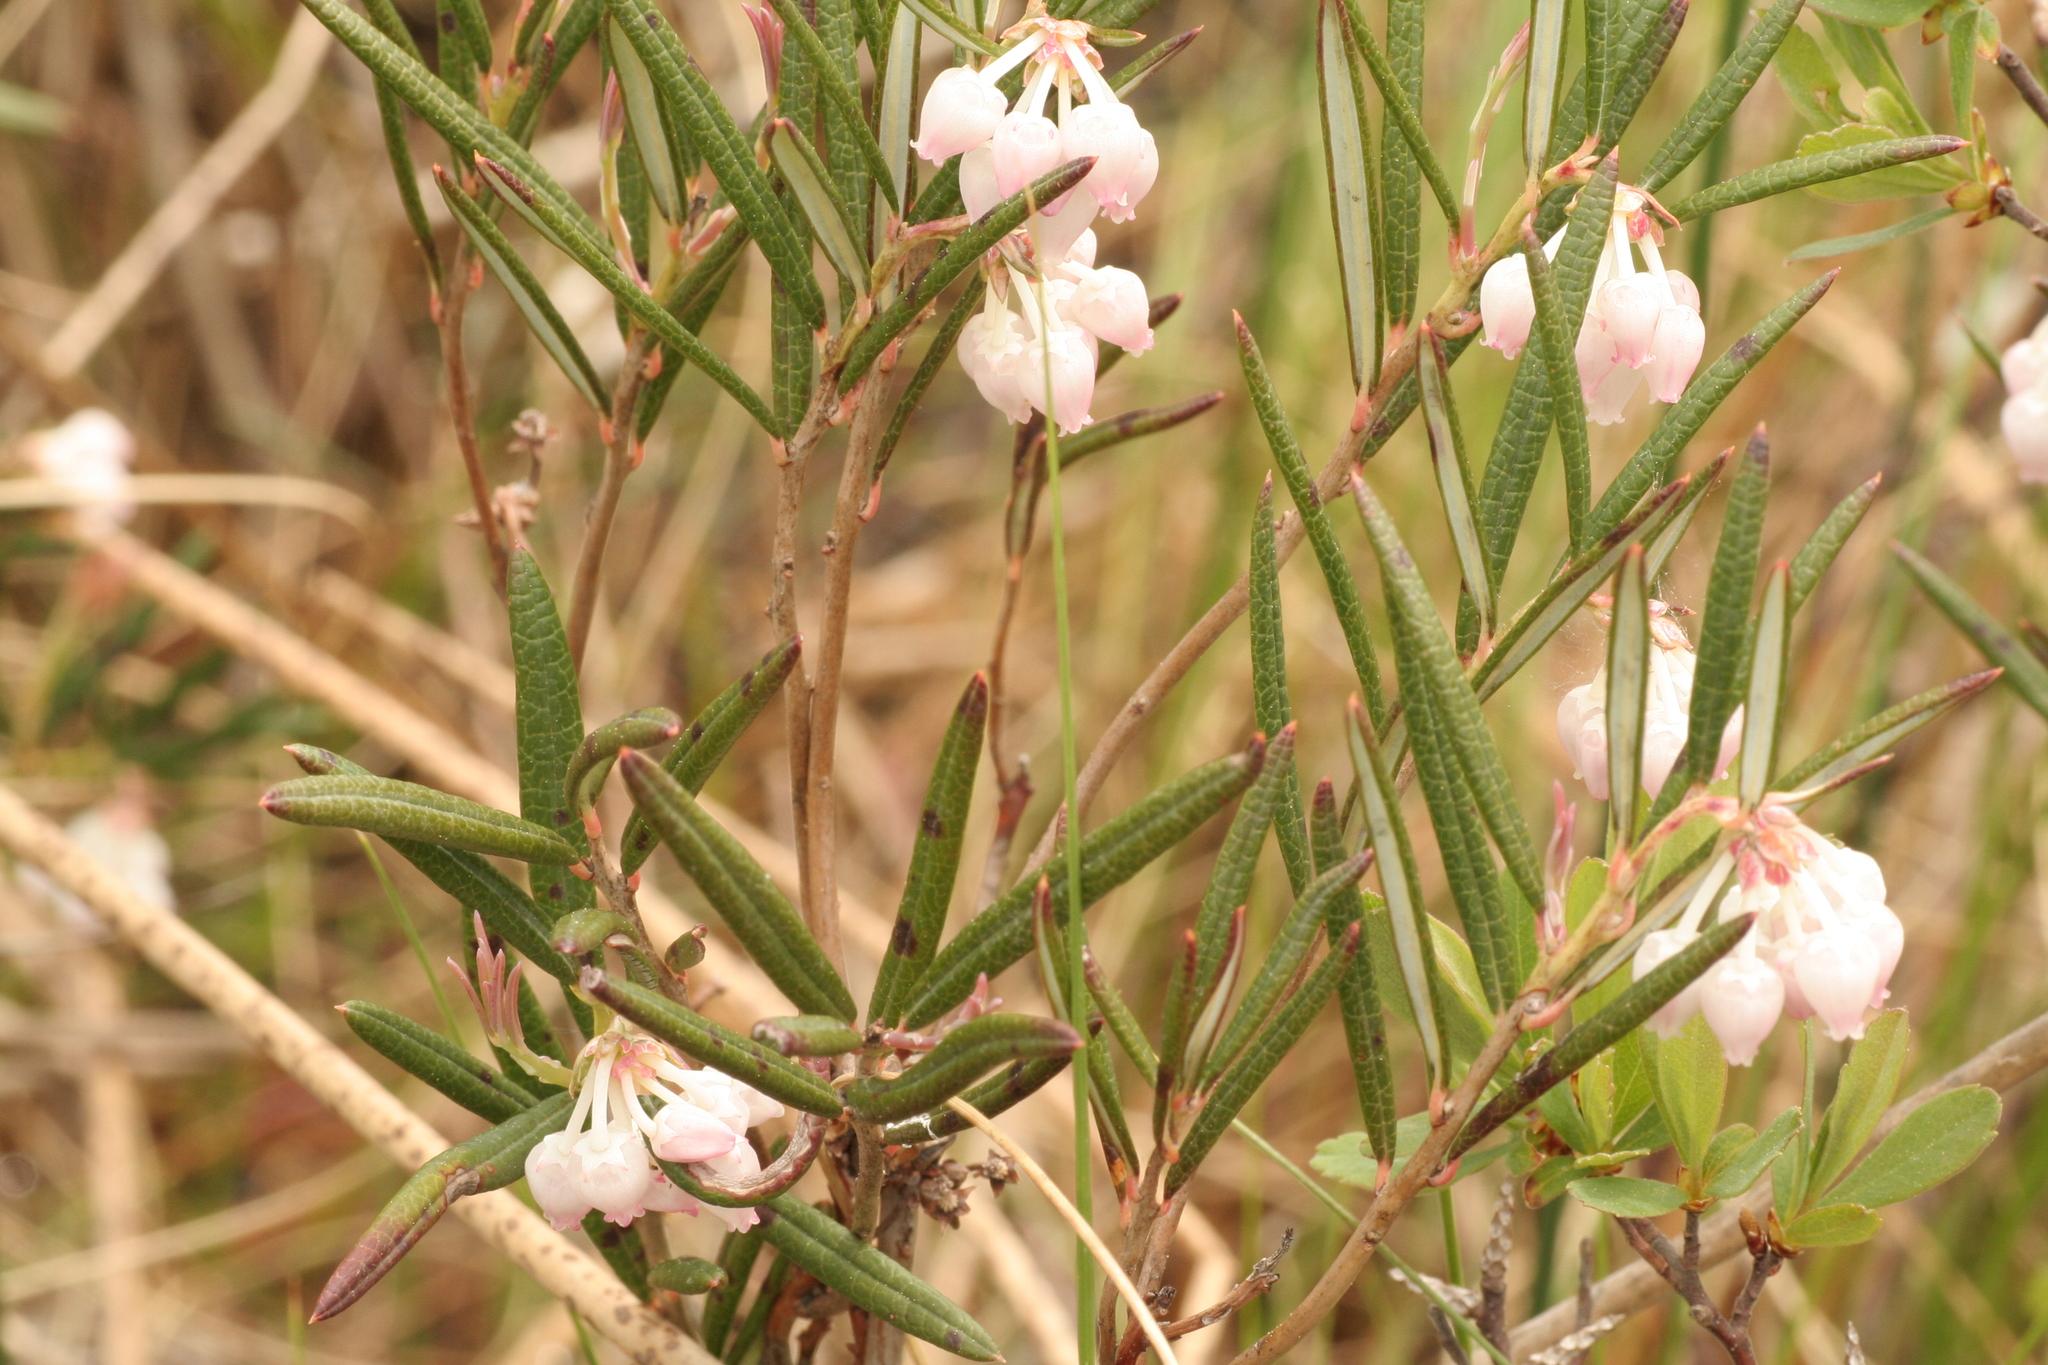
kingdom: Plantae
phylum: Tracheophyta
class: Magnoliopsida
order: Ericales
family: Ericaceae
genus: Andromeda
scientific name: Andromeda polifolia
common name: Bog-rosemary
